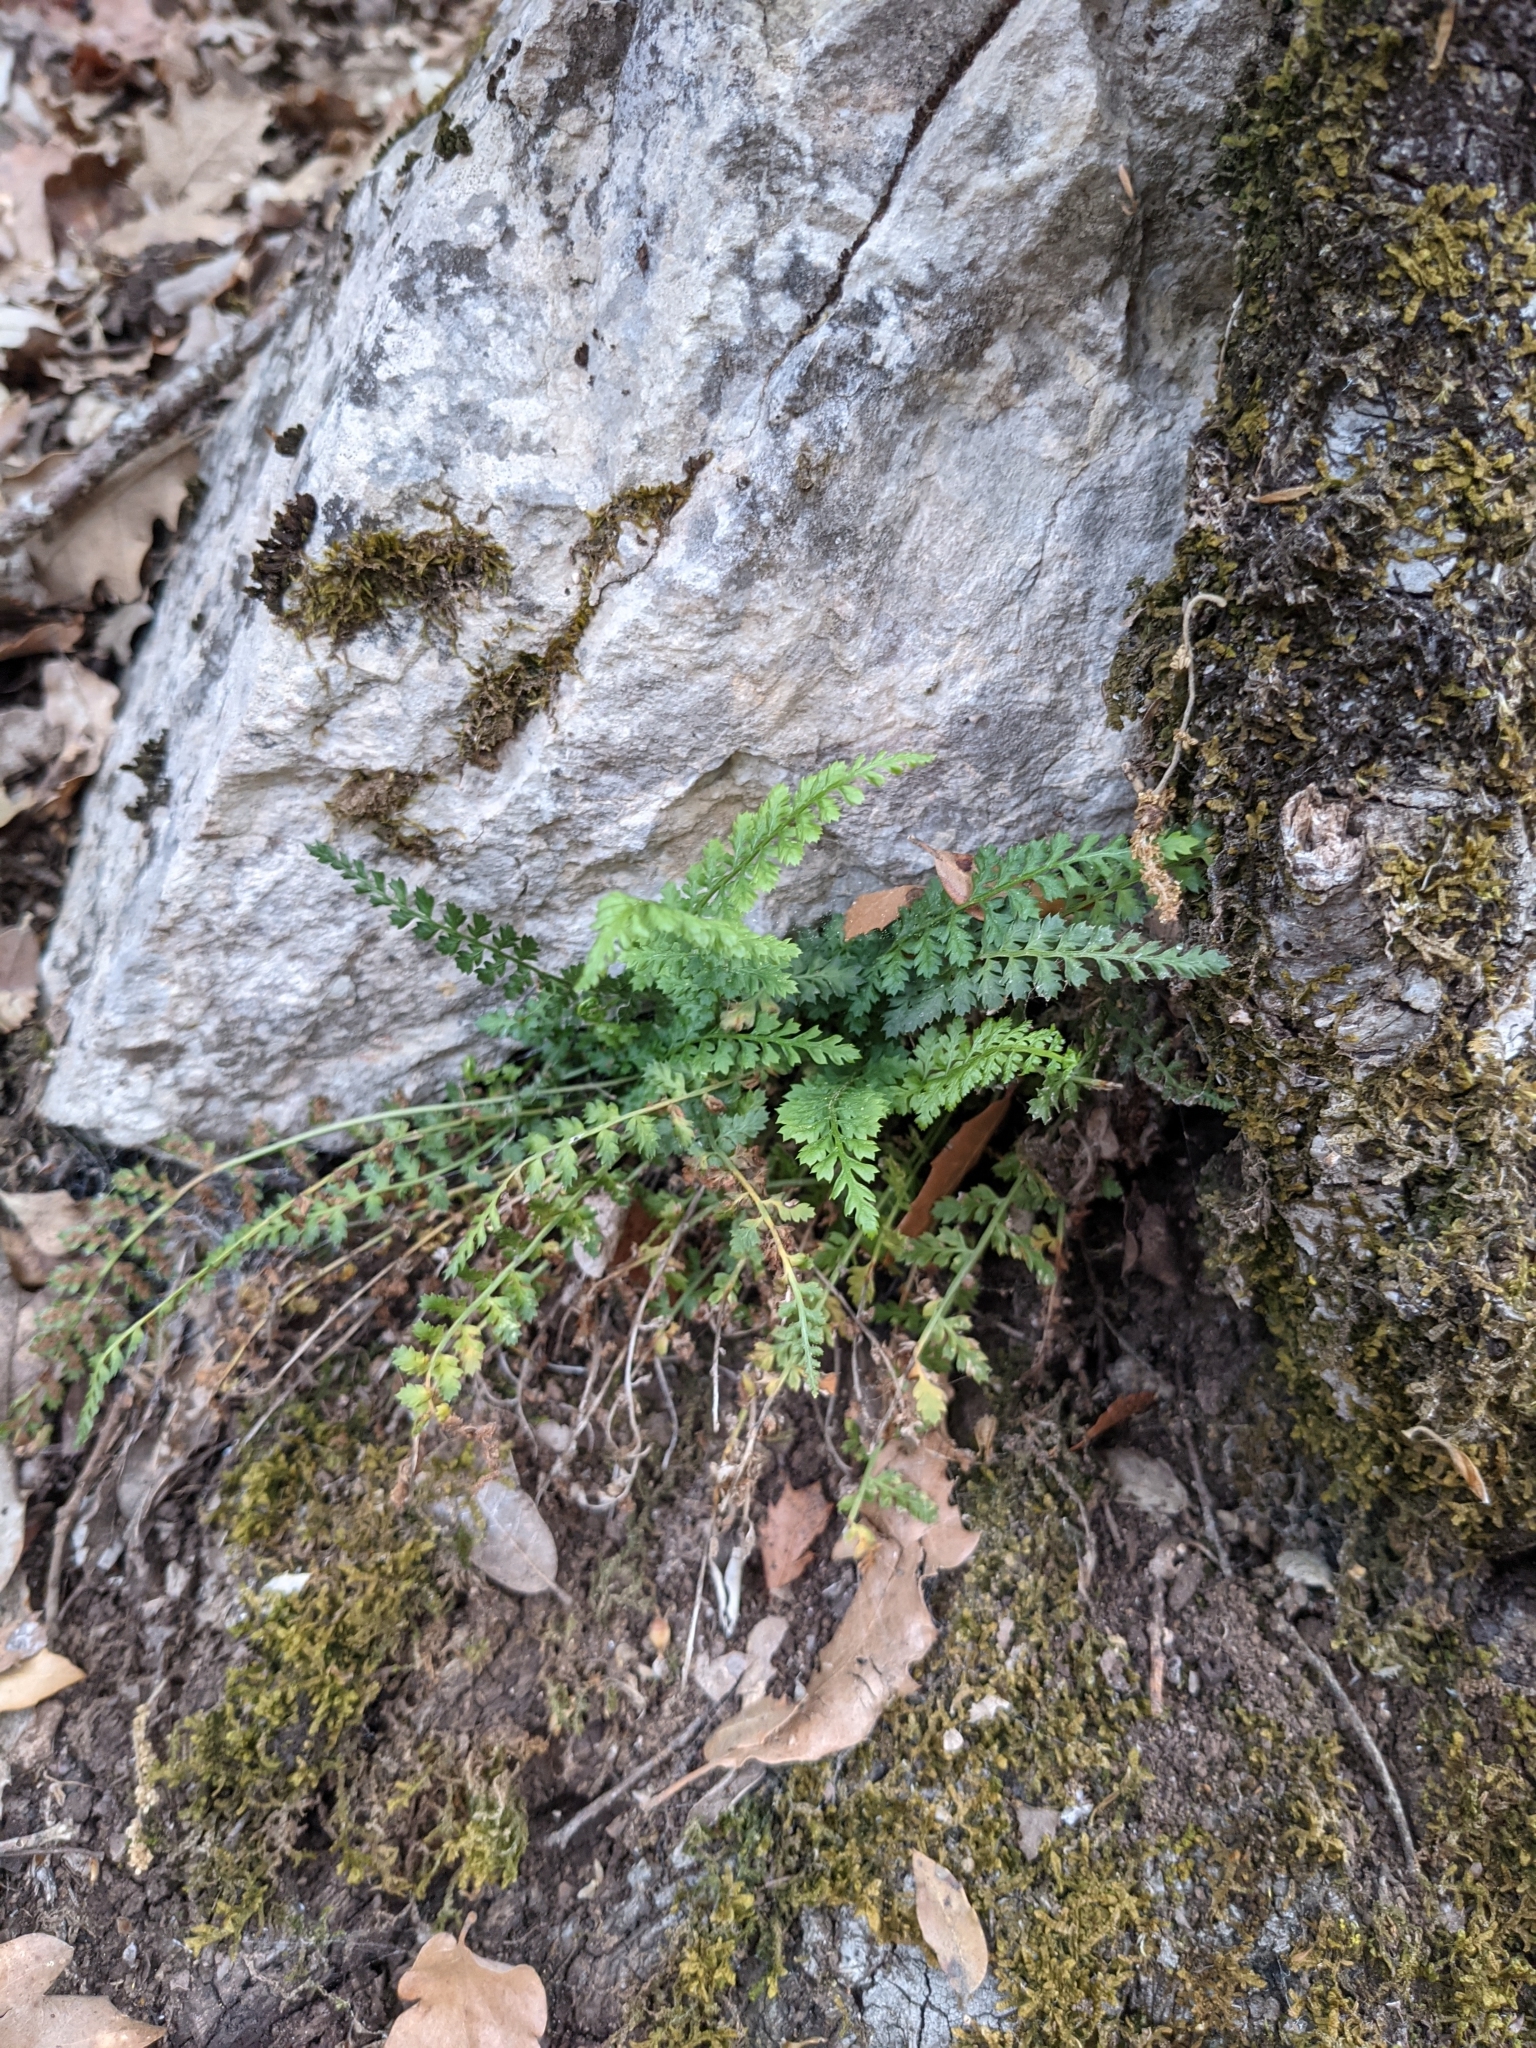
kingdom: Plantae
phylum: Tracheophyta
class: Polypodiopsida
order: Polypodiales
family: Aspleniaceae
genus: Asplenium
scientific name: Asplenium fontanum
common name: Fountain spleenwort
